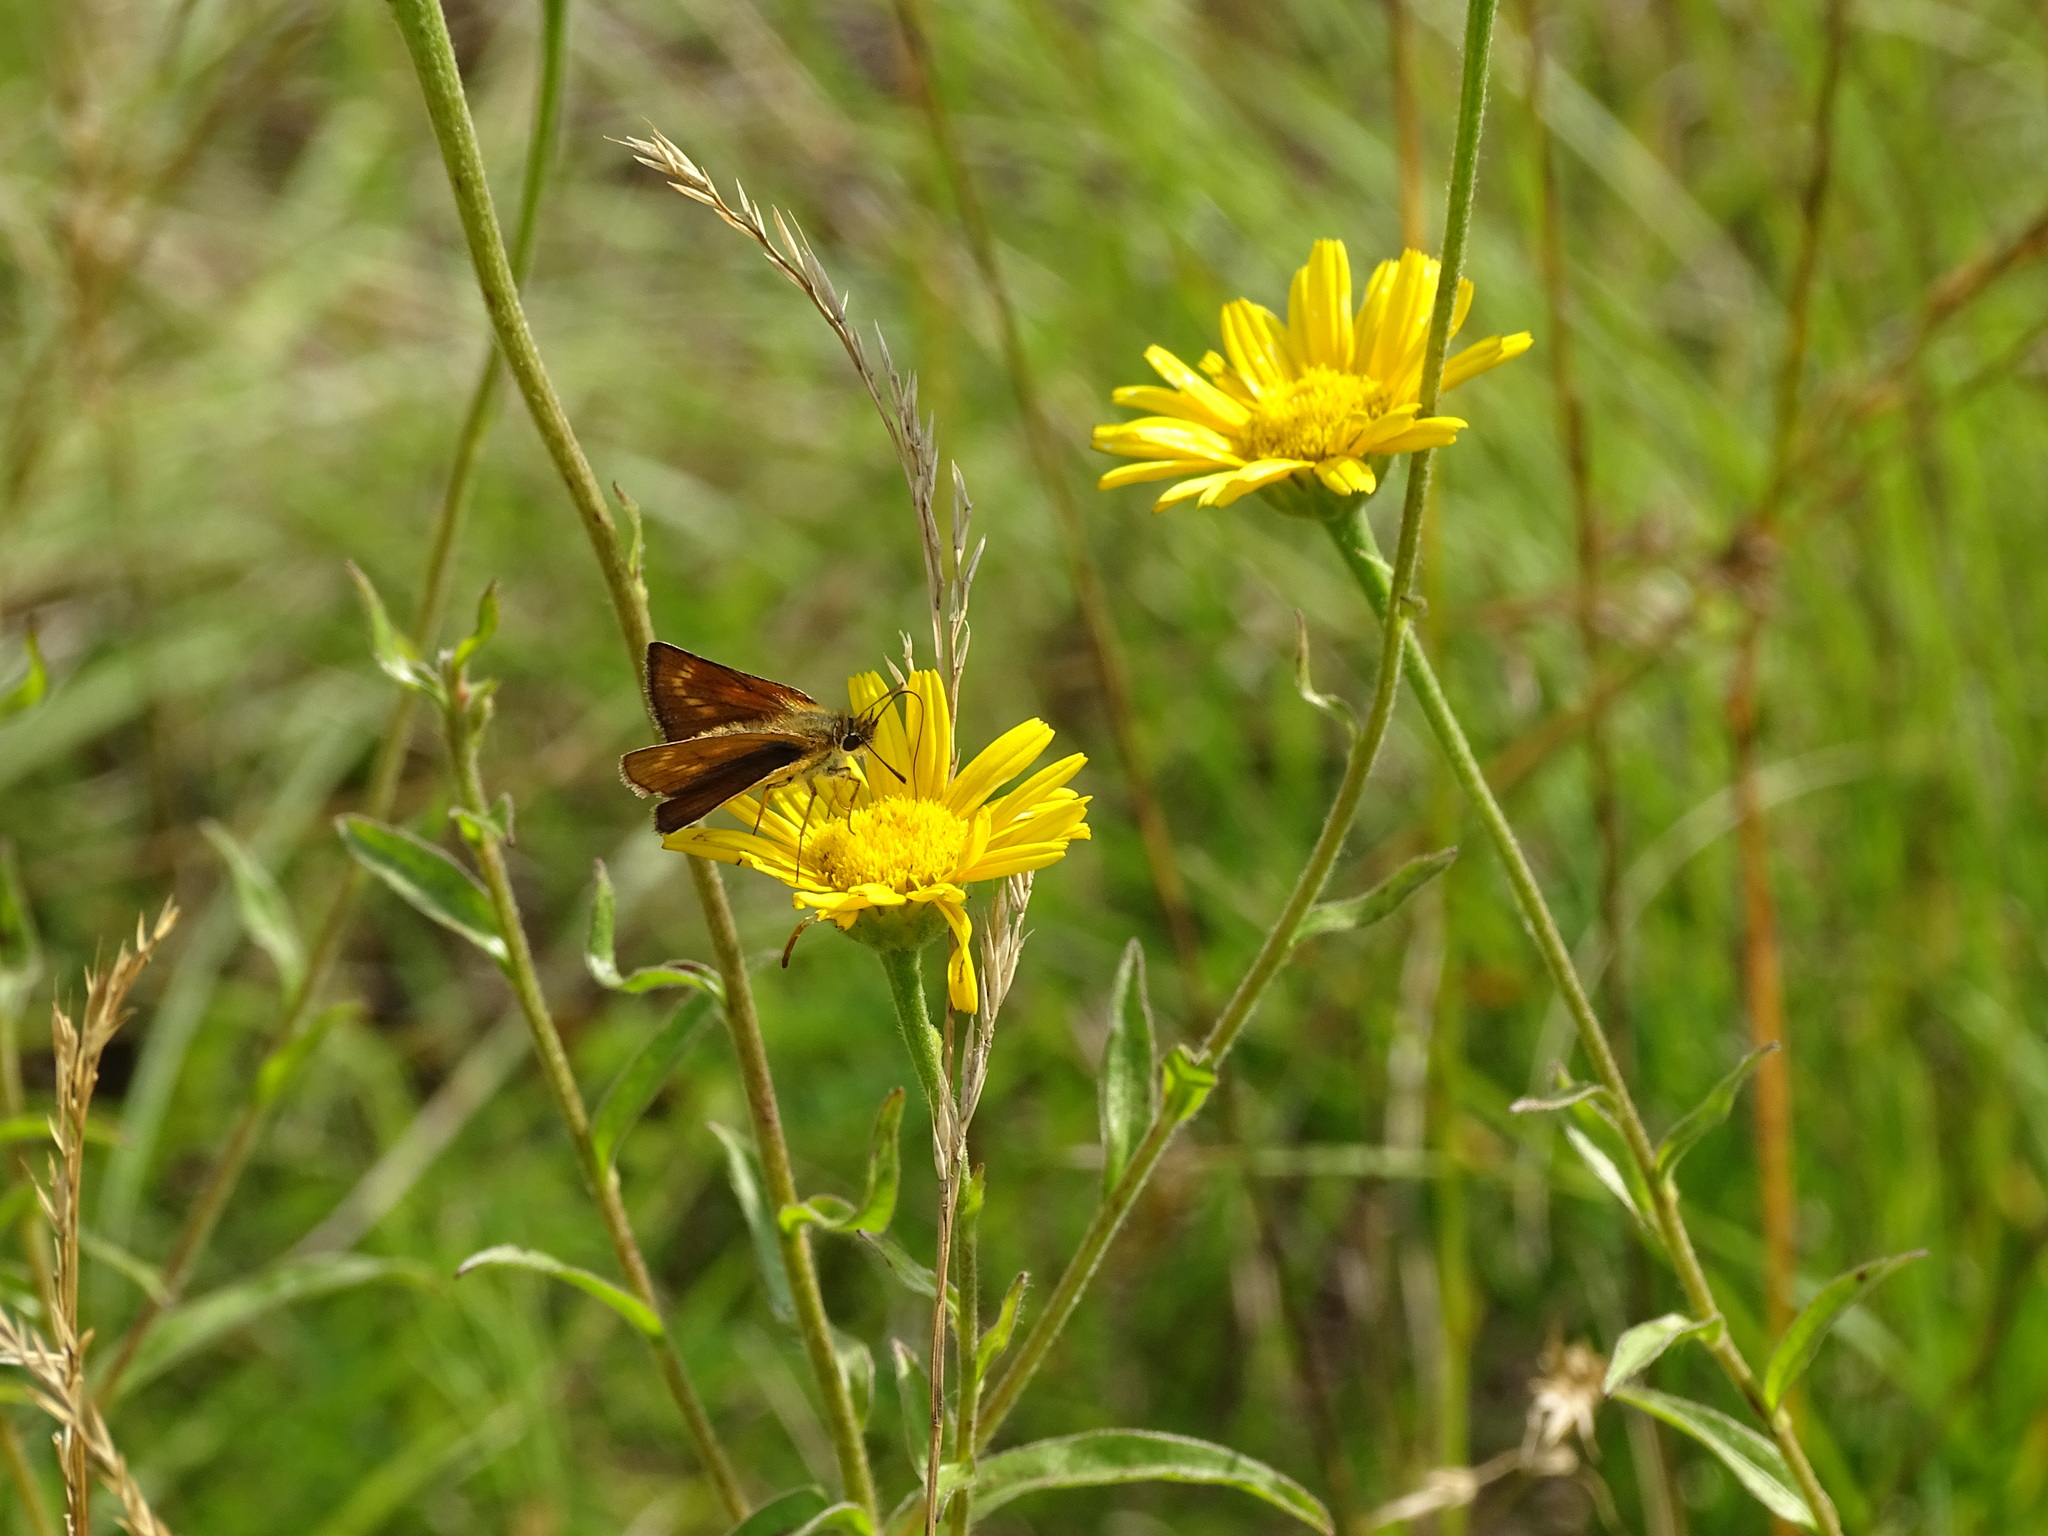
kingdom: Animalia
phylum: Arthropoda
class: Insecta
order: Lepidoptera
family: Hesperiidae
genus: Thymelicus
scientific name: Thymelicus acteon
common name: Lulworth skipper
